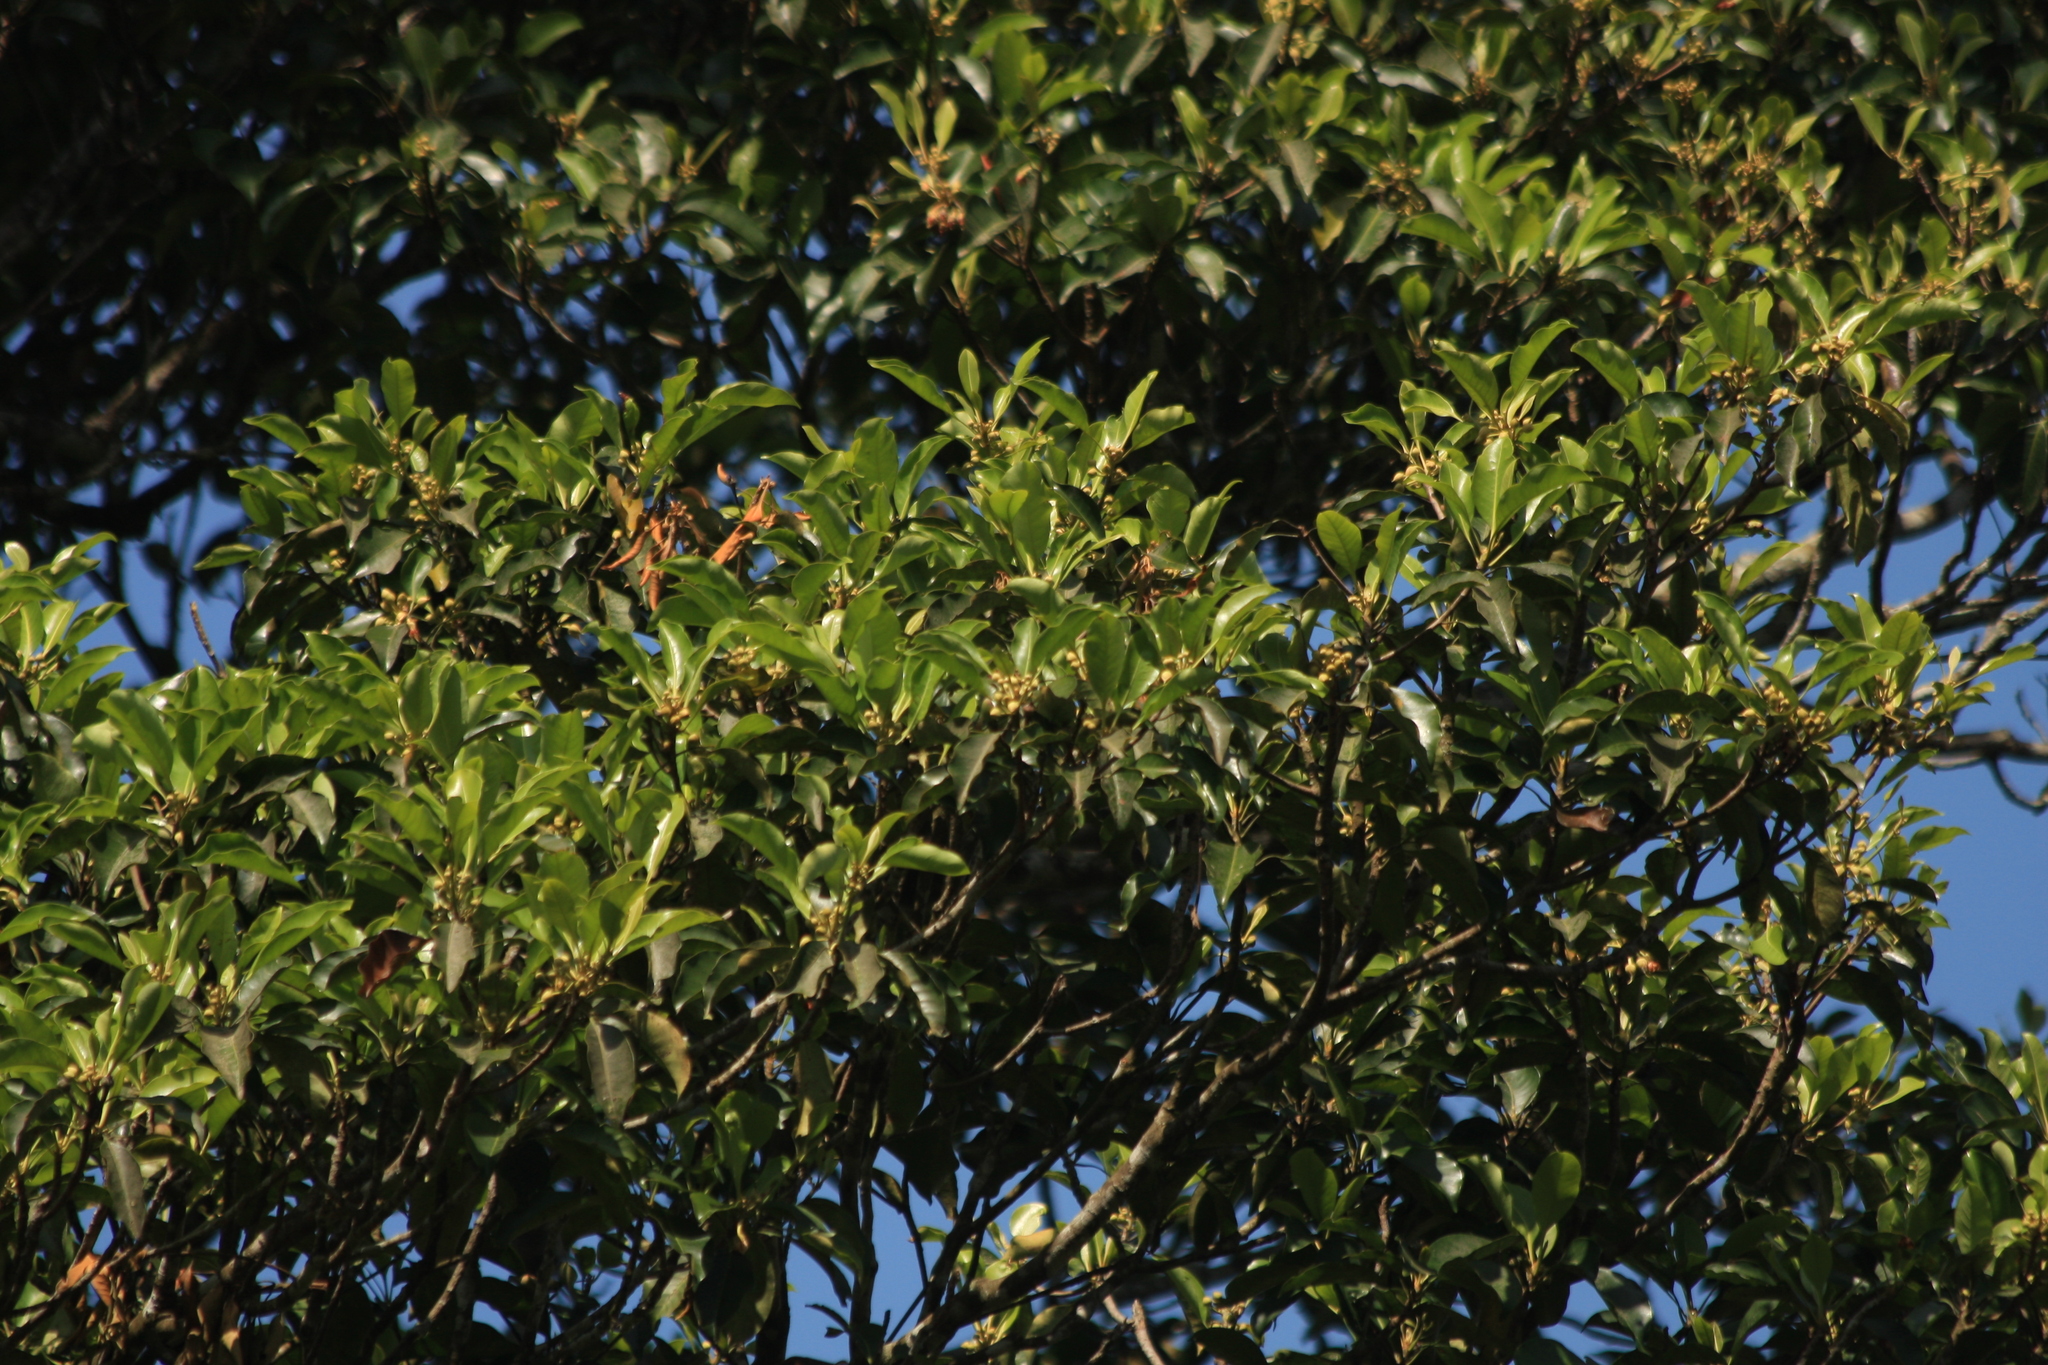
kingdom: Plantae
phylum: Tracheophyta
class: Magnoliopsida
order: Ericales
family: Sapotaceae
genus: Palaquium
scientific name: Palaquium ellipticum
